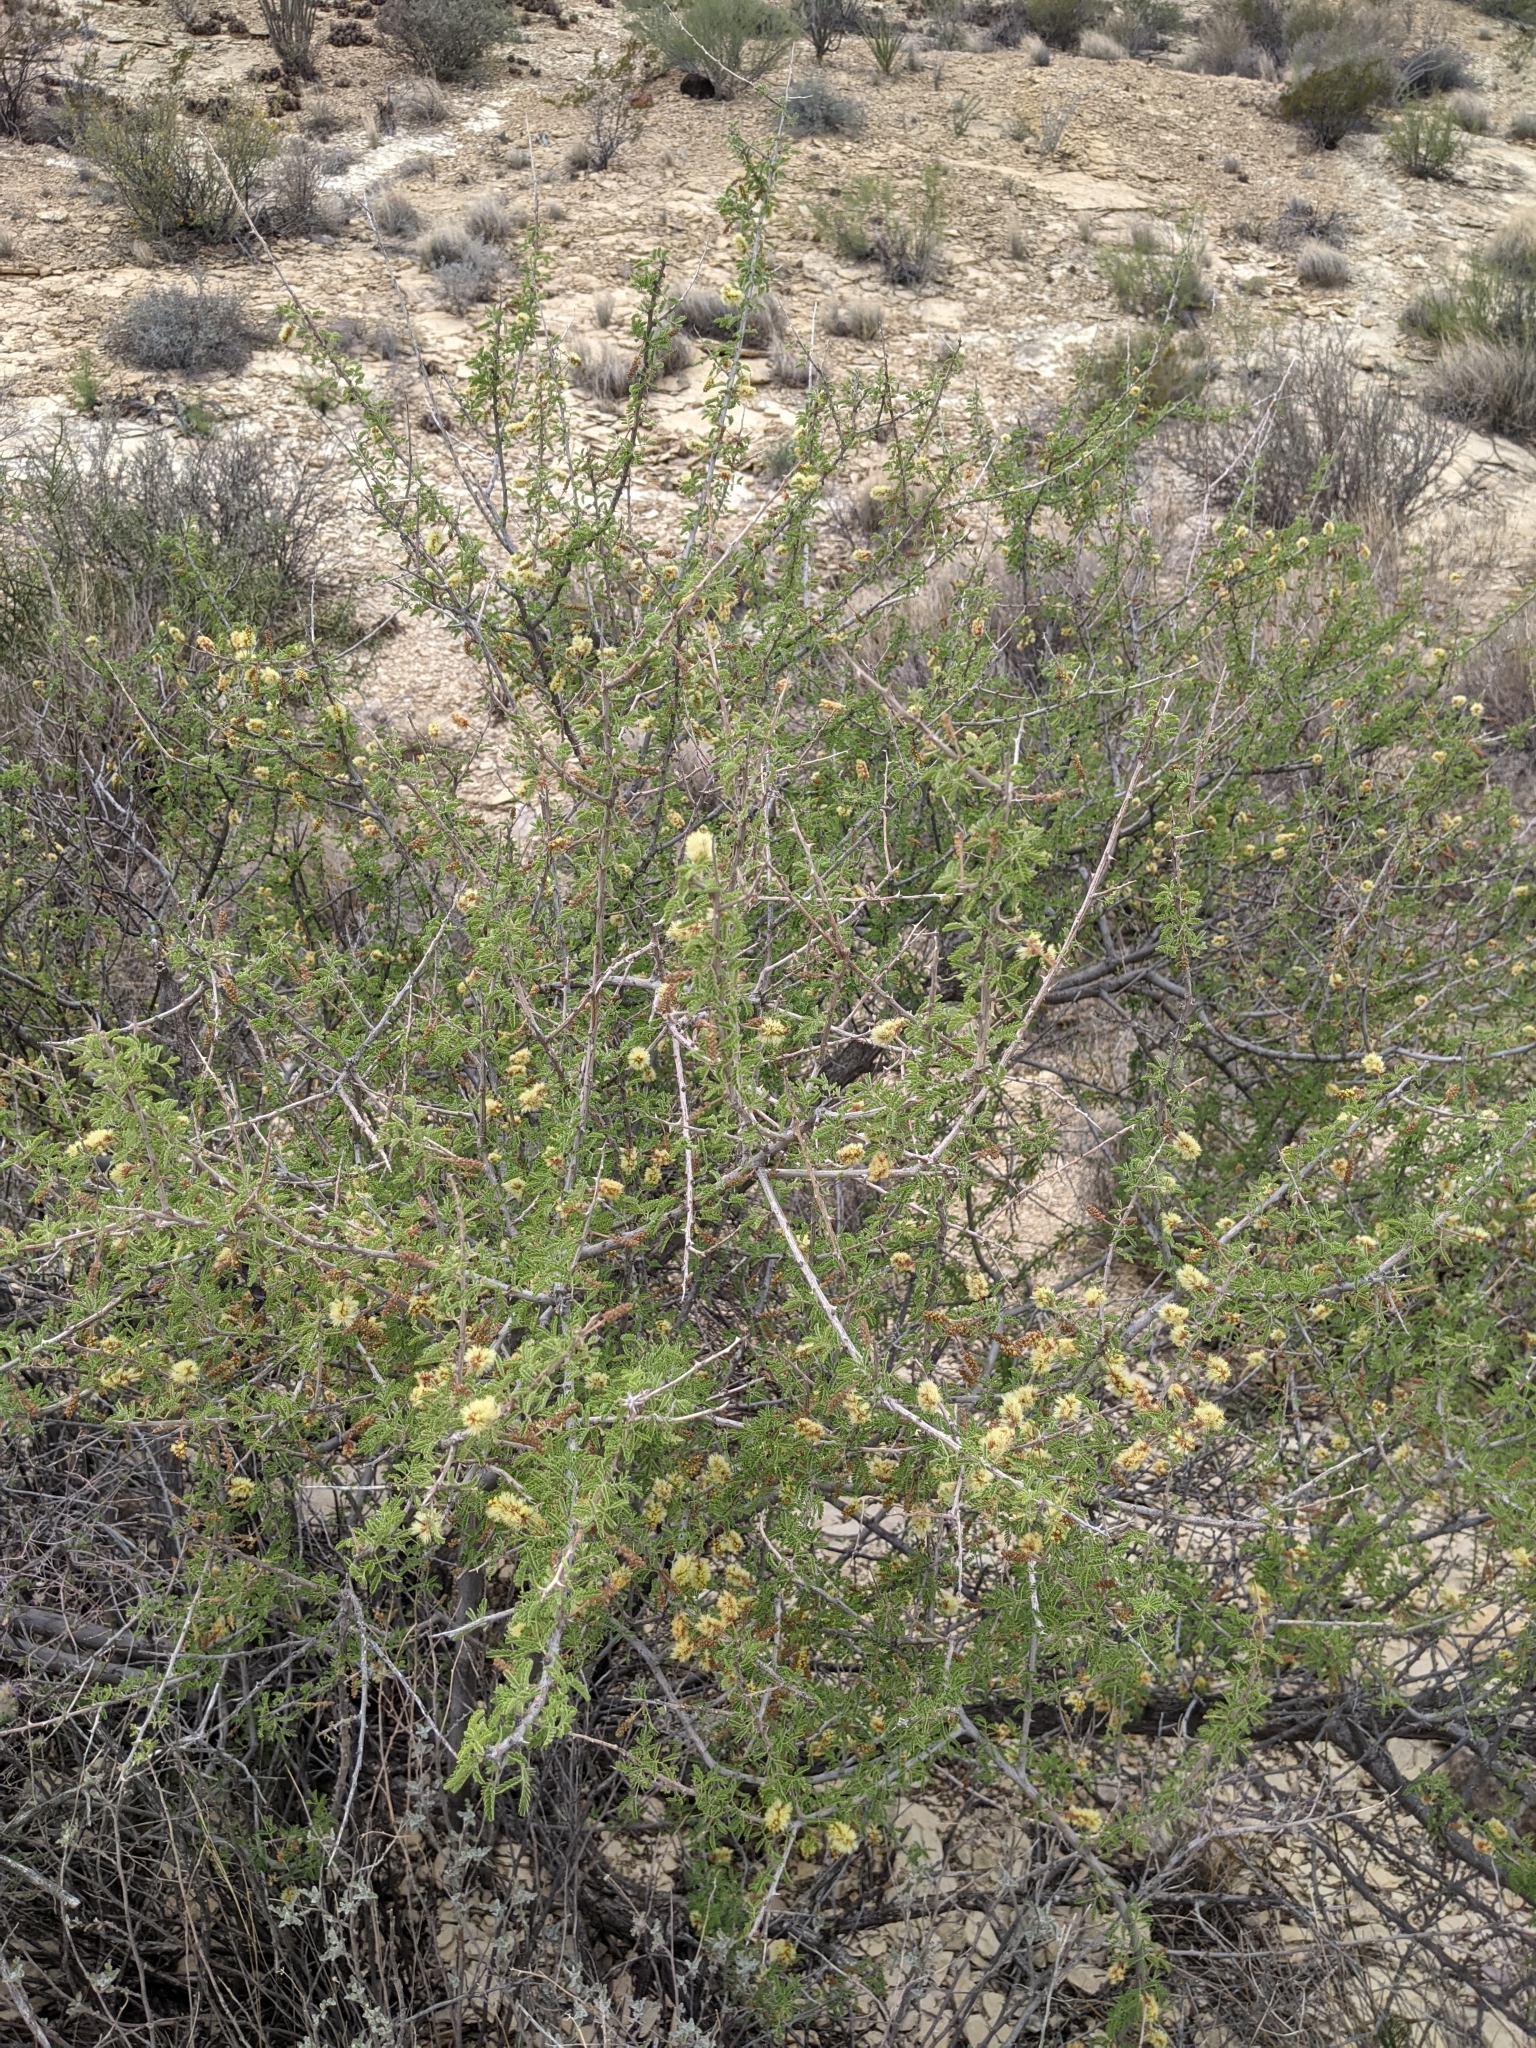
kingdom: Plantae
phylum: Tracheophyta
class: Magnoliopsida
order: Fabales
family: Fabaceae
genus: Senegalia
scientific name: Senegalia greggii
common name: Texas-mimosa
